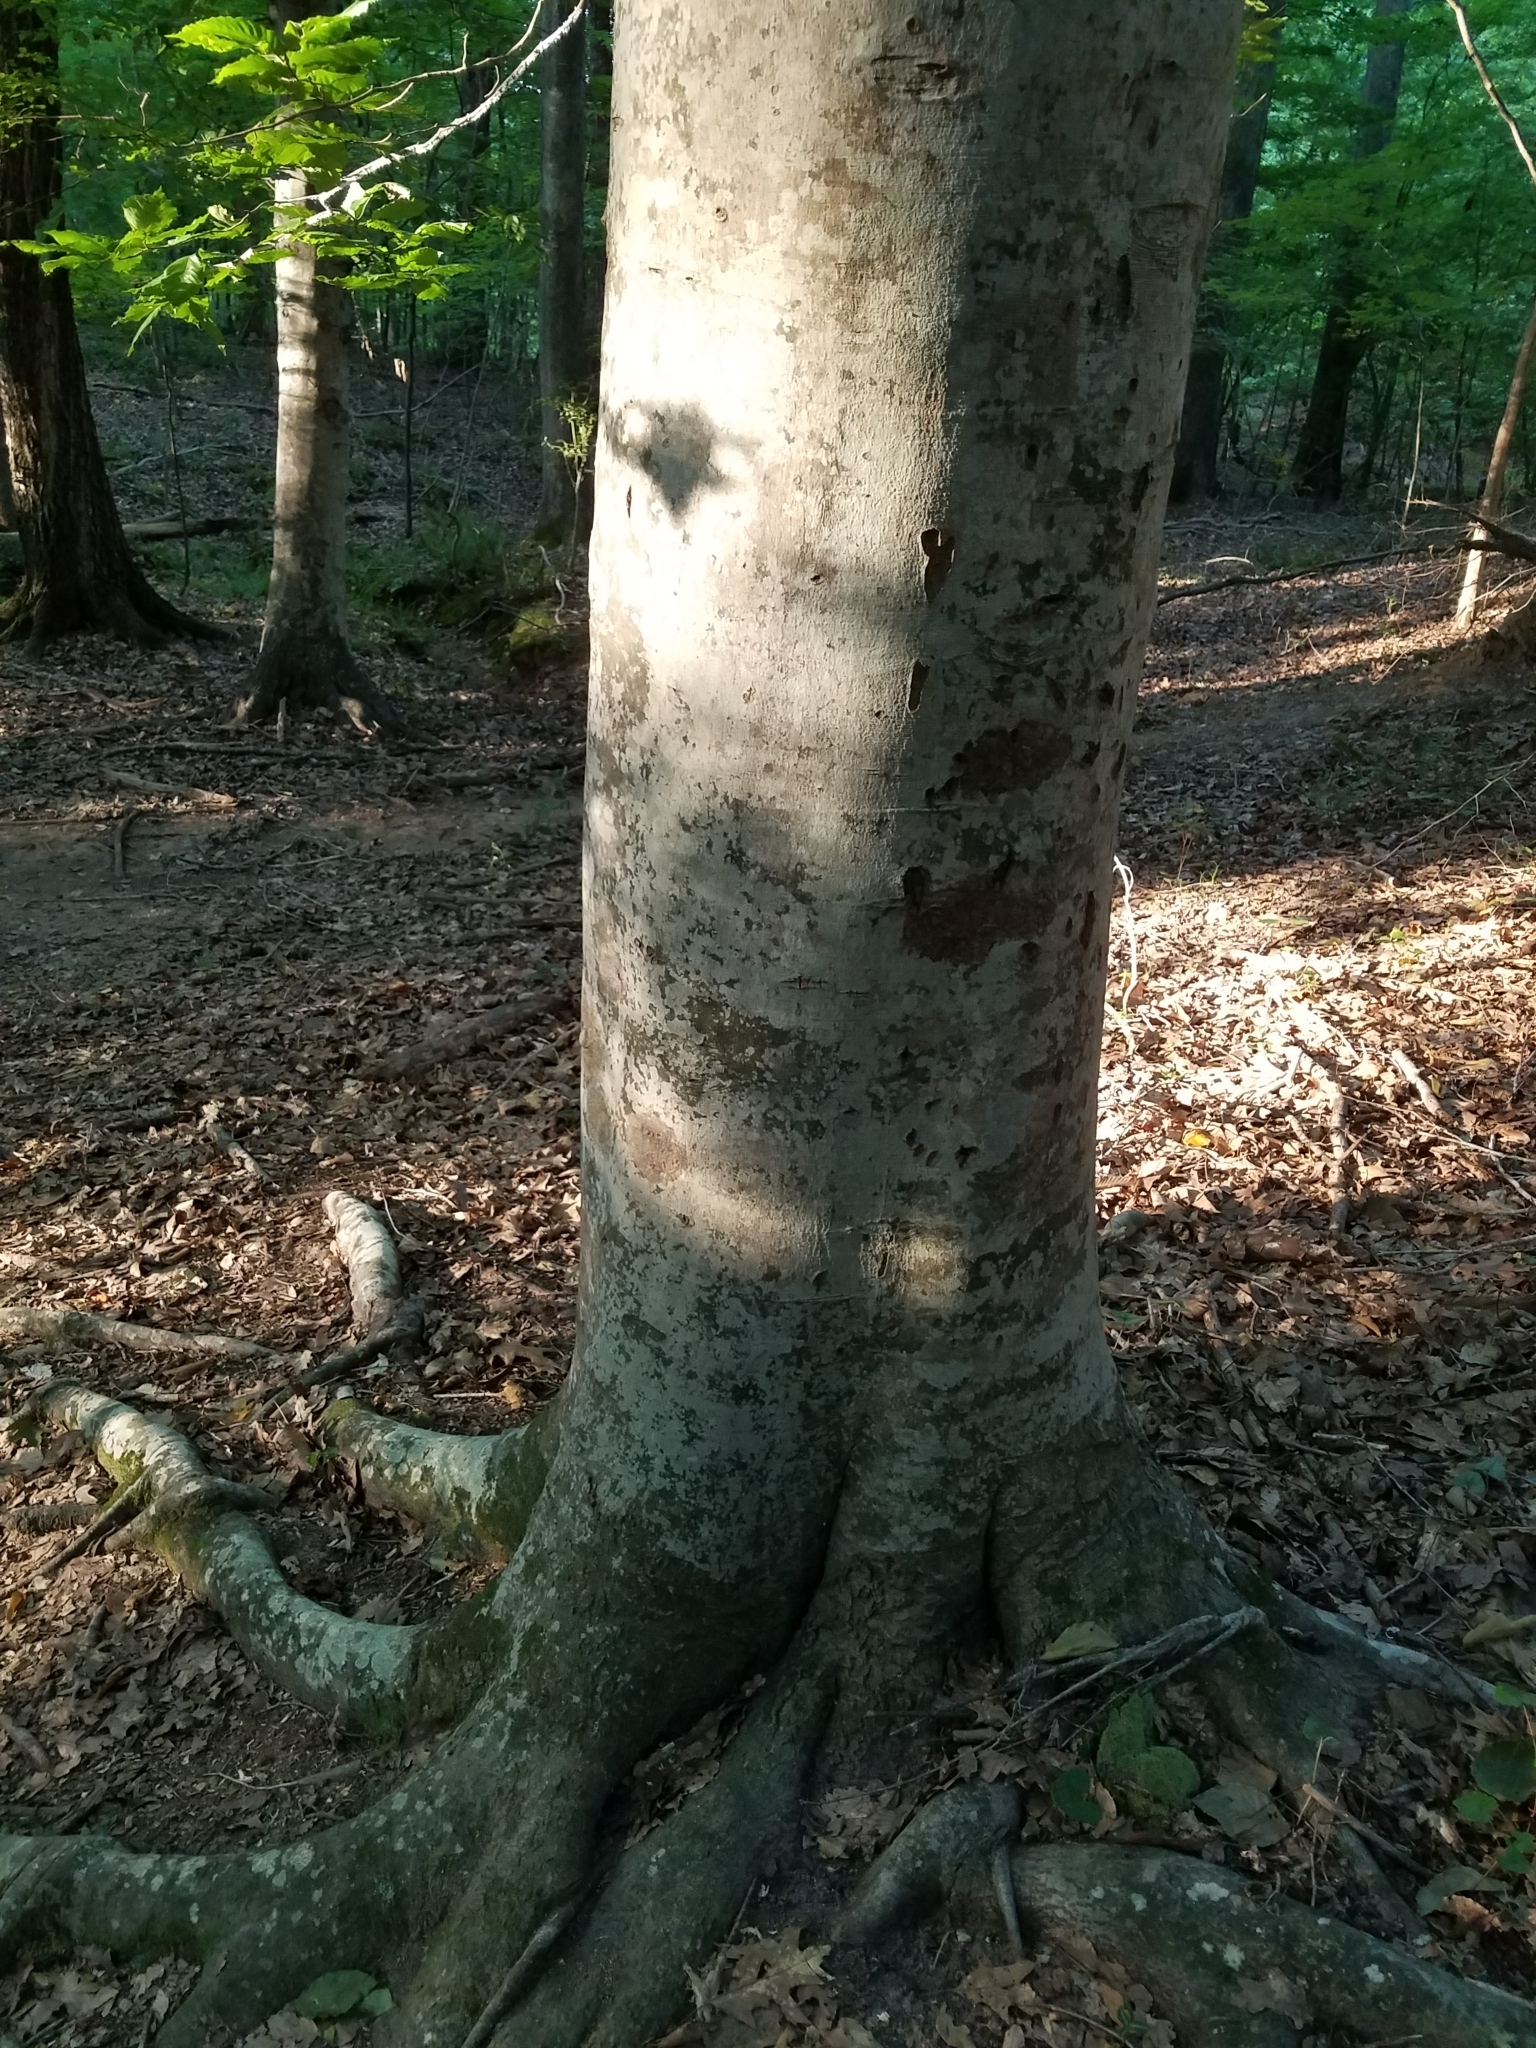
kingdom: Plantae
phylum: Tracheophyta
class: Magnoliopsida
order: Fagales
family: Fagaceae
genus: Fagus
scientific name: Fagus grandifolia
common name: American beech
